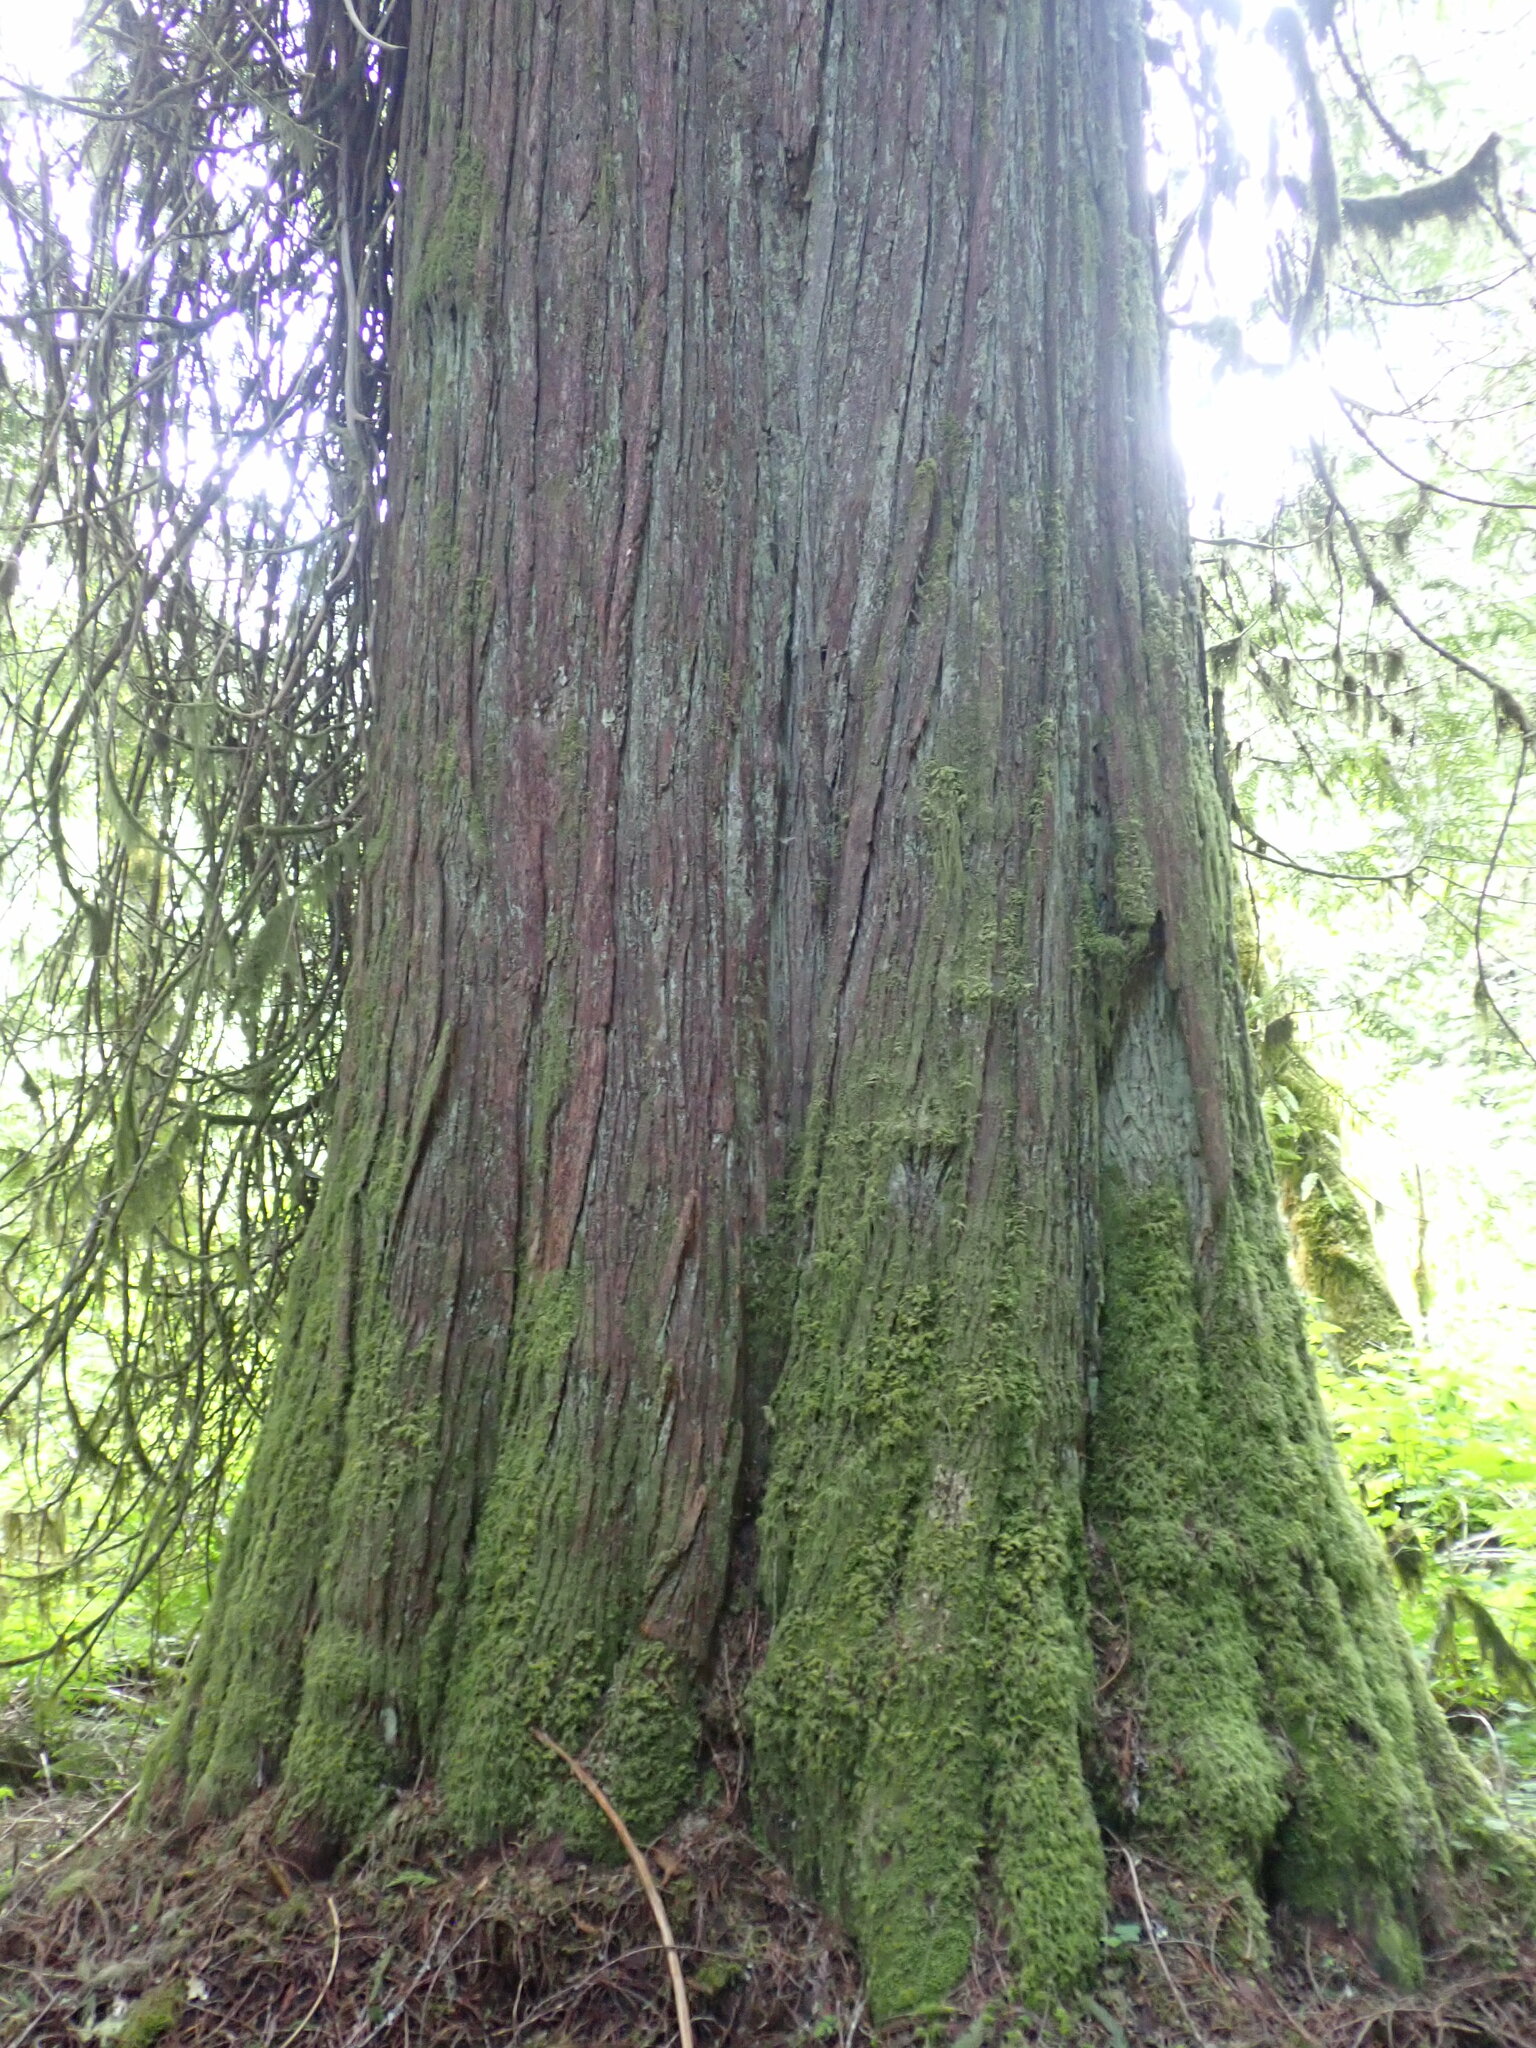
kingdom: Plantae
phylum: Tracheophyta
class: Pinopsida
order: Pinales
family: Cupressaceae
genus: Thuja
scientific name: Thuja plicata
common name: Western red-cedar
